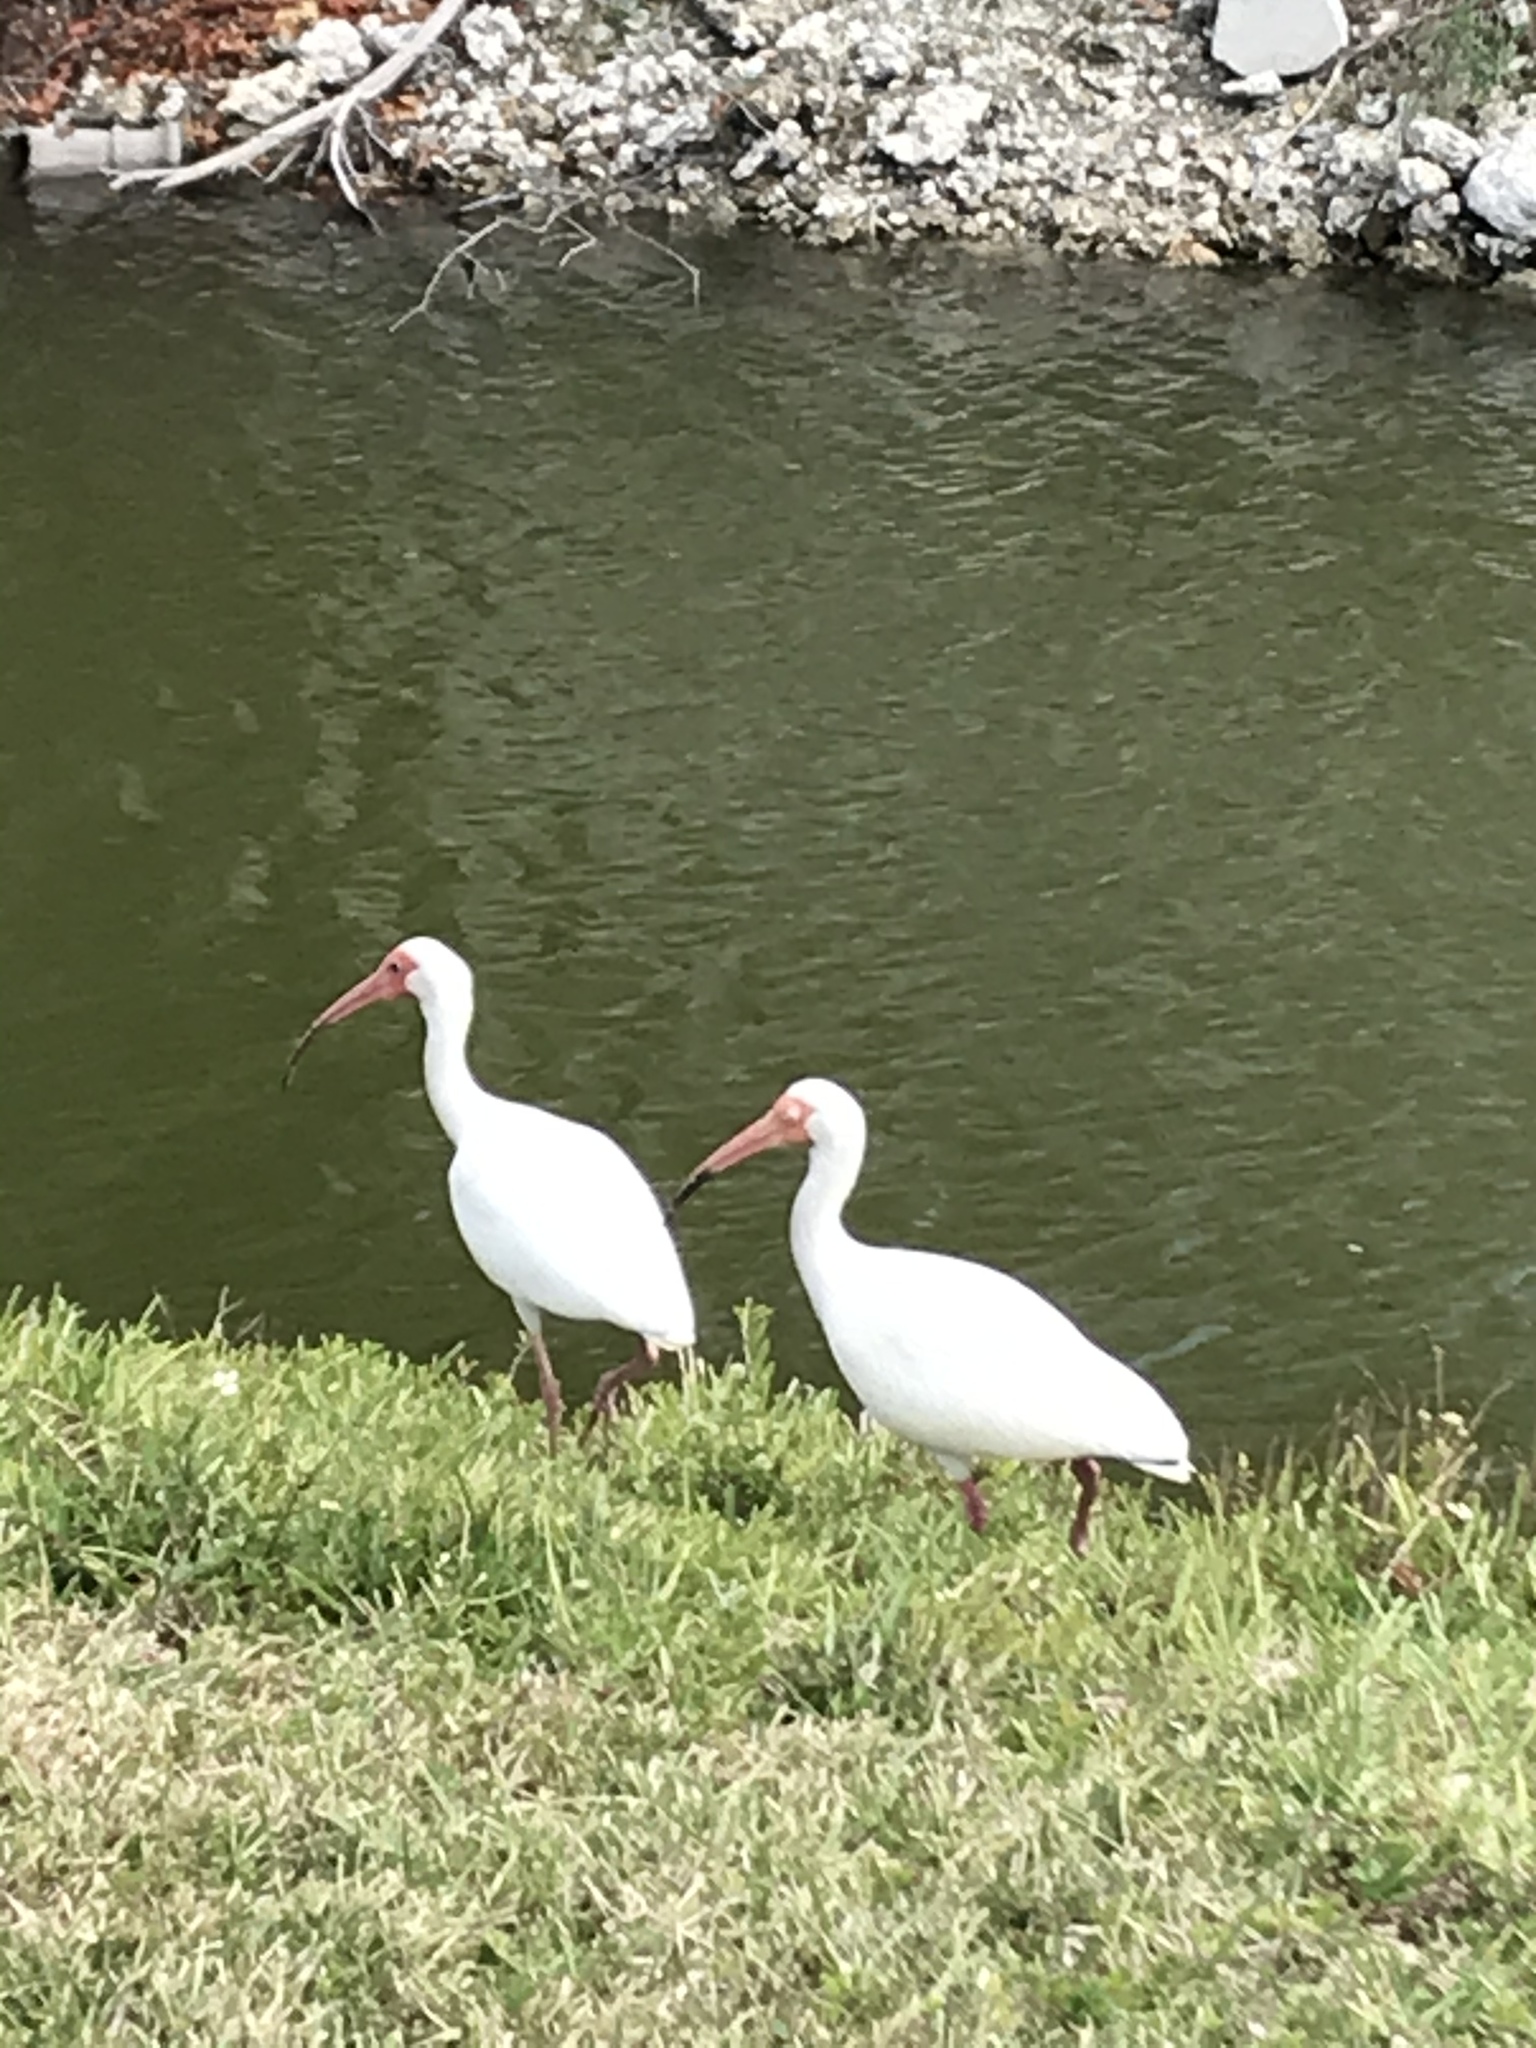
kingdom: Animalia
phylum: Chordata
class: Aves
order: Pelecaniformes
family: Threskiornithidae
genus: Eudocimus
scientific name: Eudocimus albus
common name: White ibis
